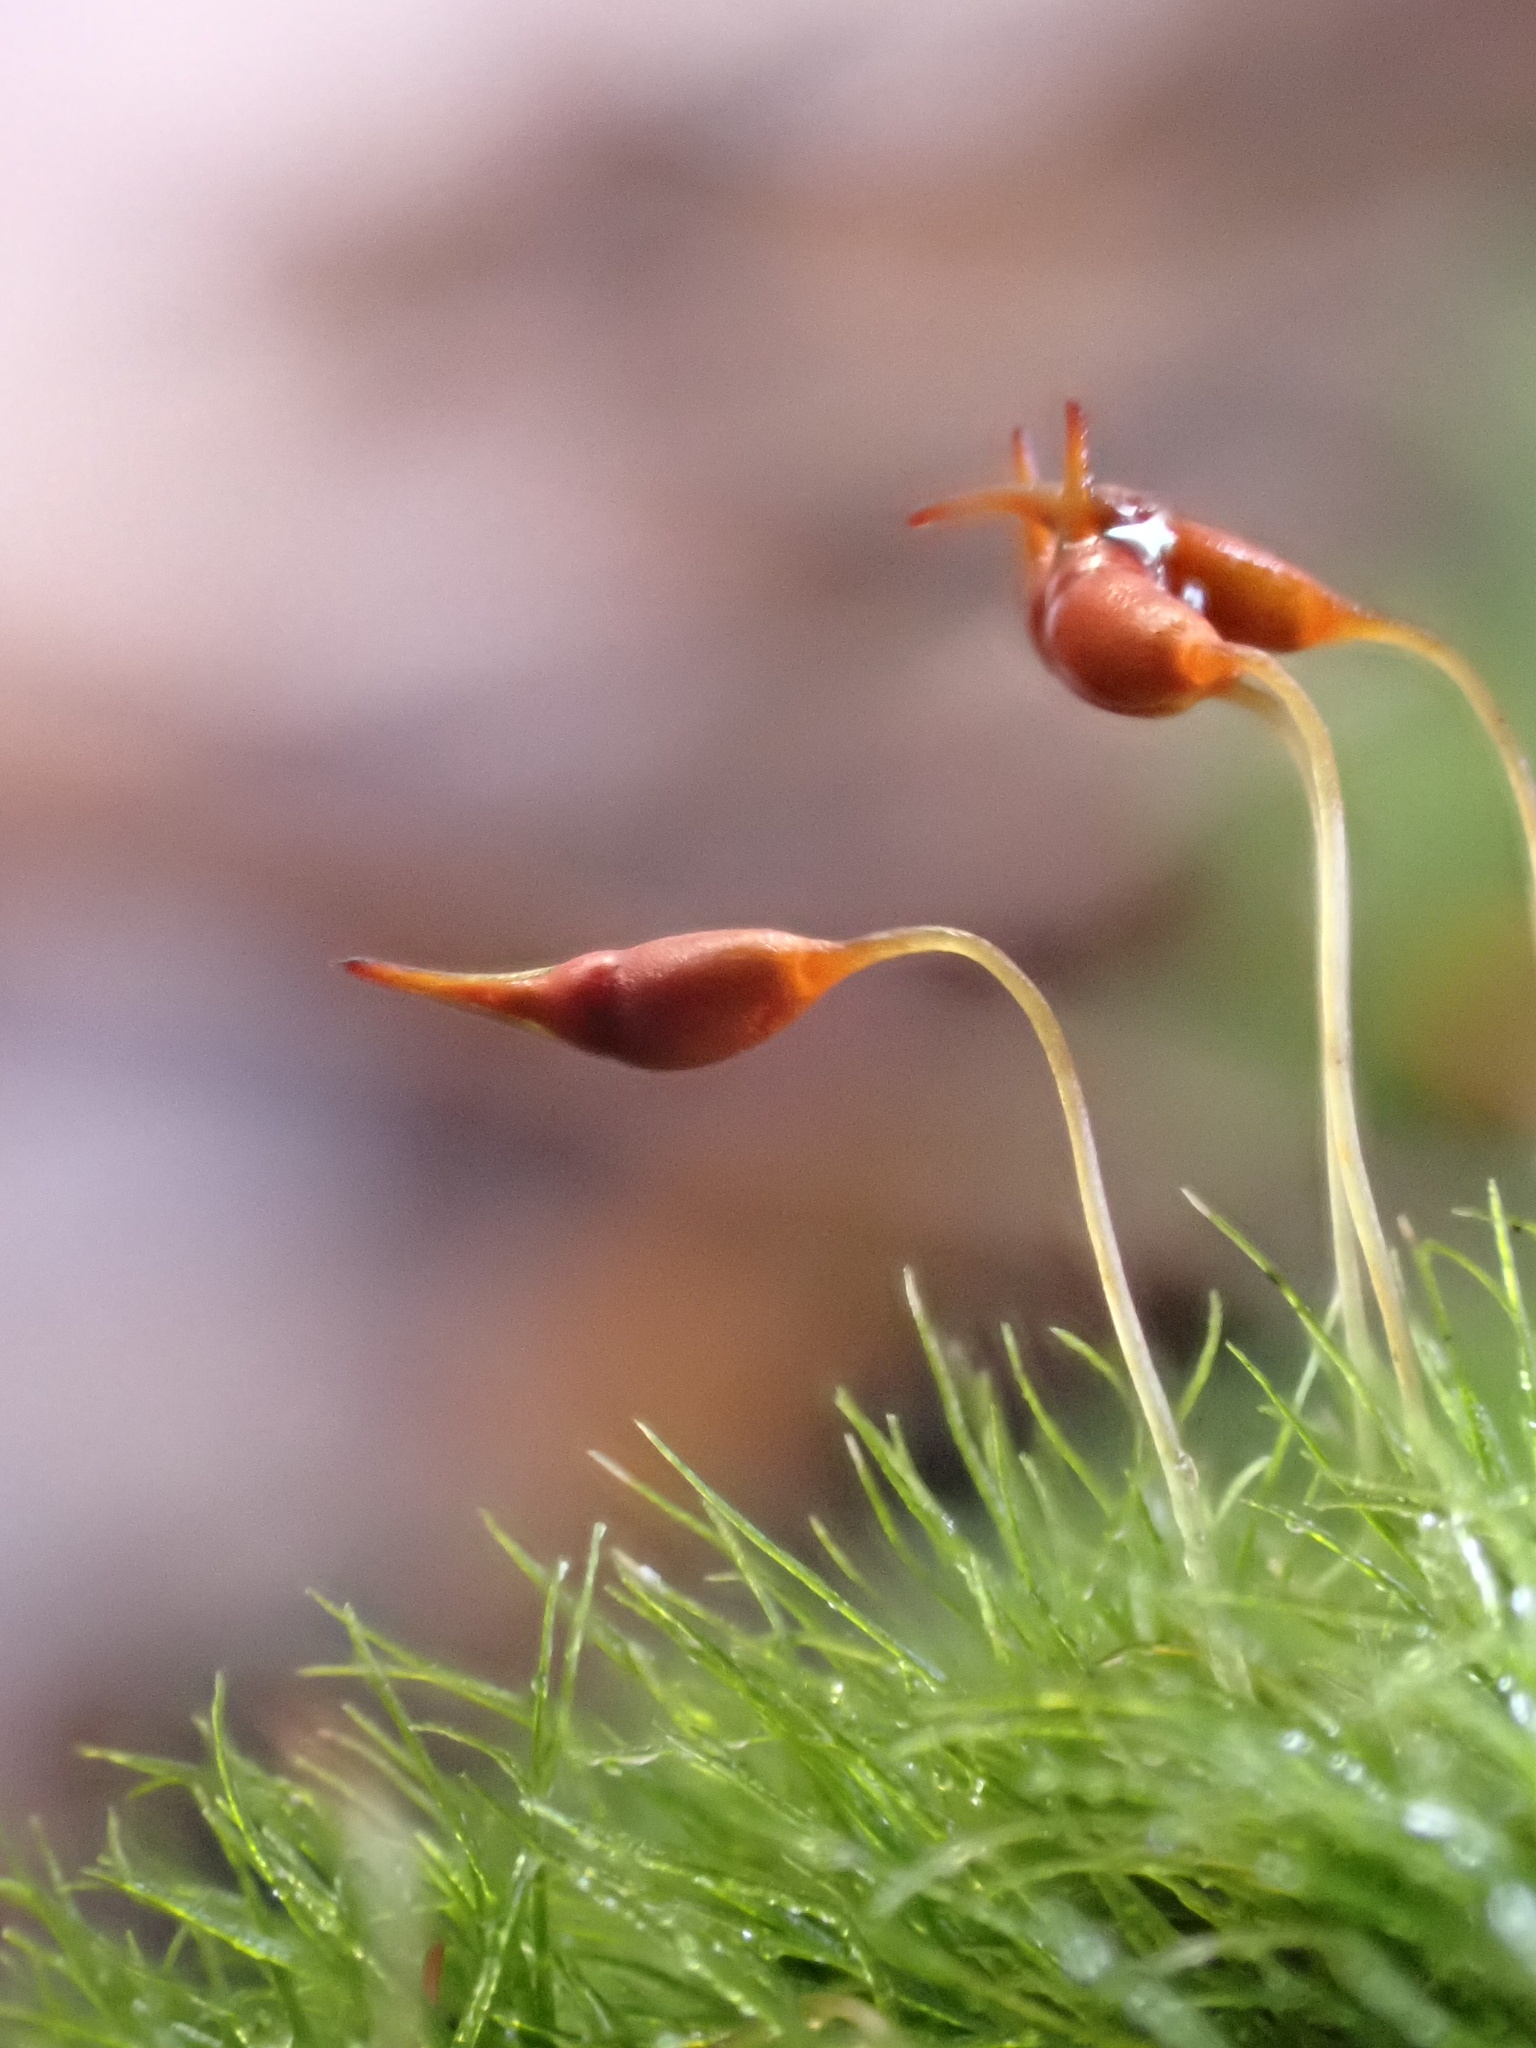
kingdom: Plantae
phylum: Bryophyta
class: Bryopsida
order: Dicranales
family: Dicranellaceae
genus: Dicranella
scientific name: Dicranella heteromalla
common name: Silky forklet moss
